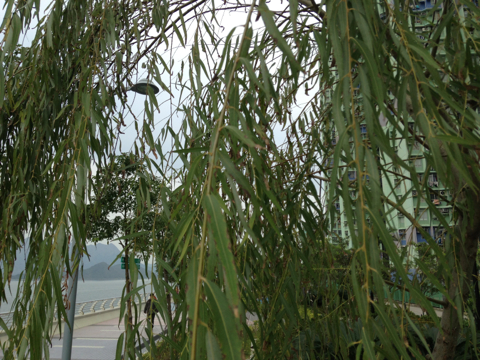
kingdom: Plantae
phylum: Tracheophyta
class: Magnoliopsida
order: Malpighiales
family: Salicaceae
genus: Salix
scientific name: Salix babylonica
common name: Weeping willow
